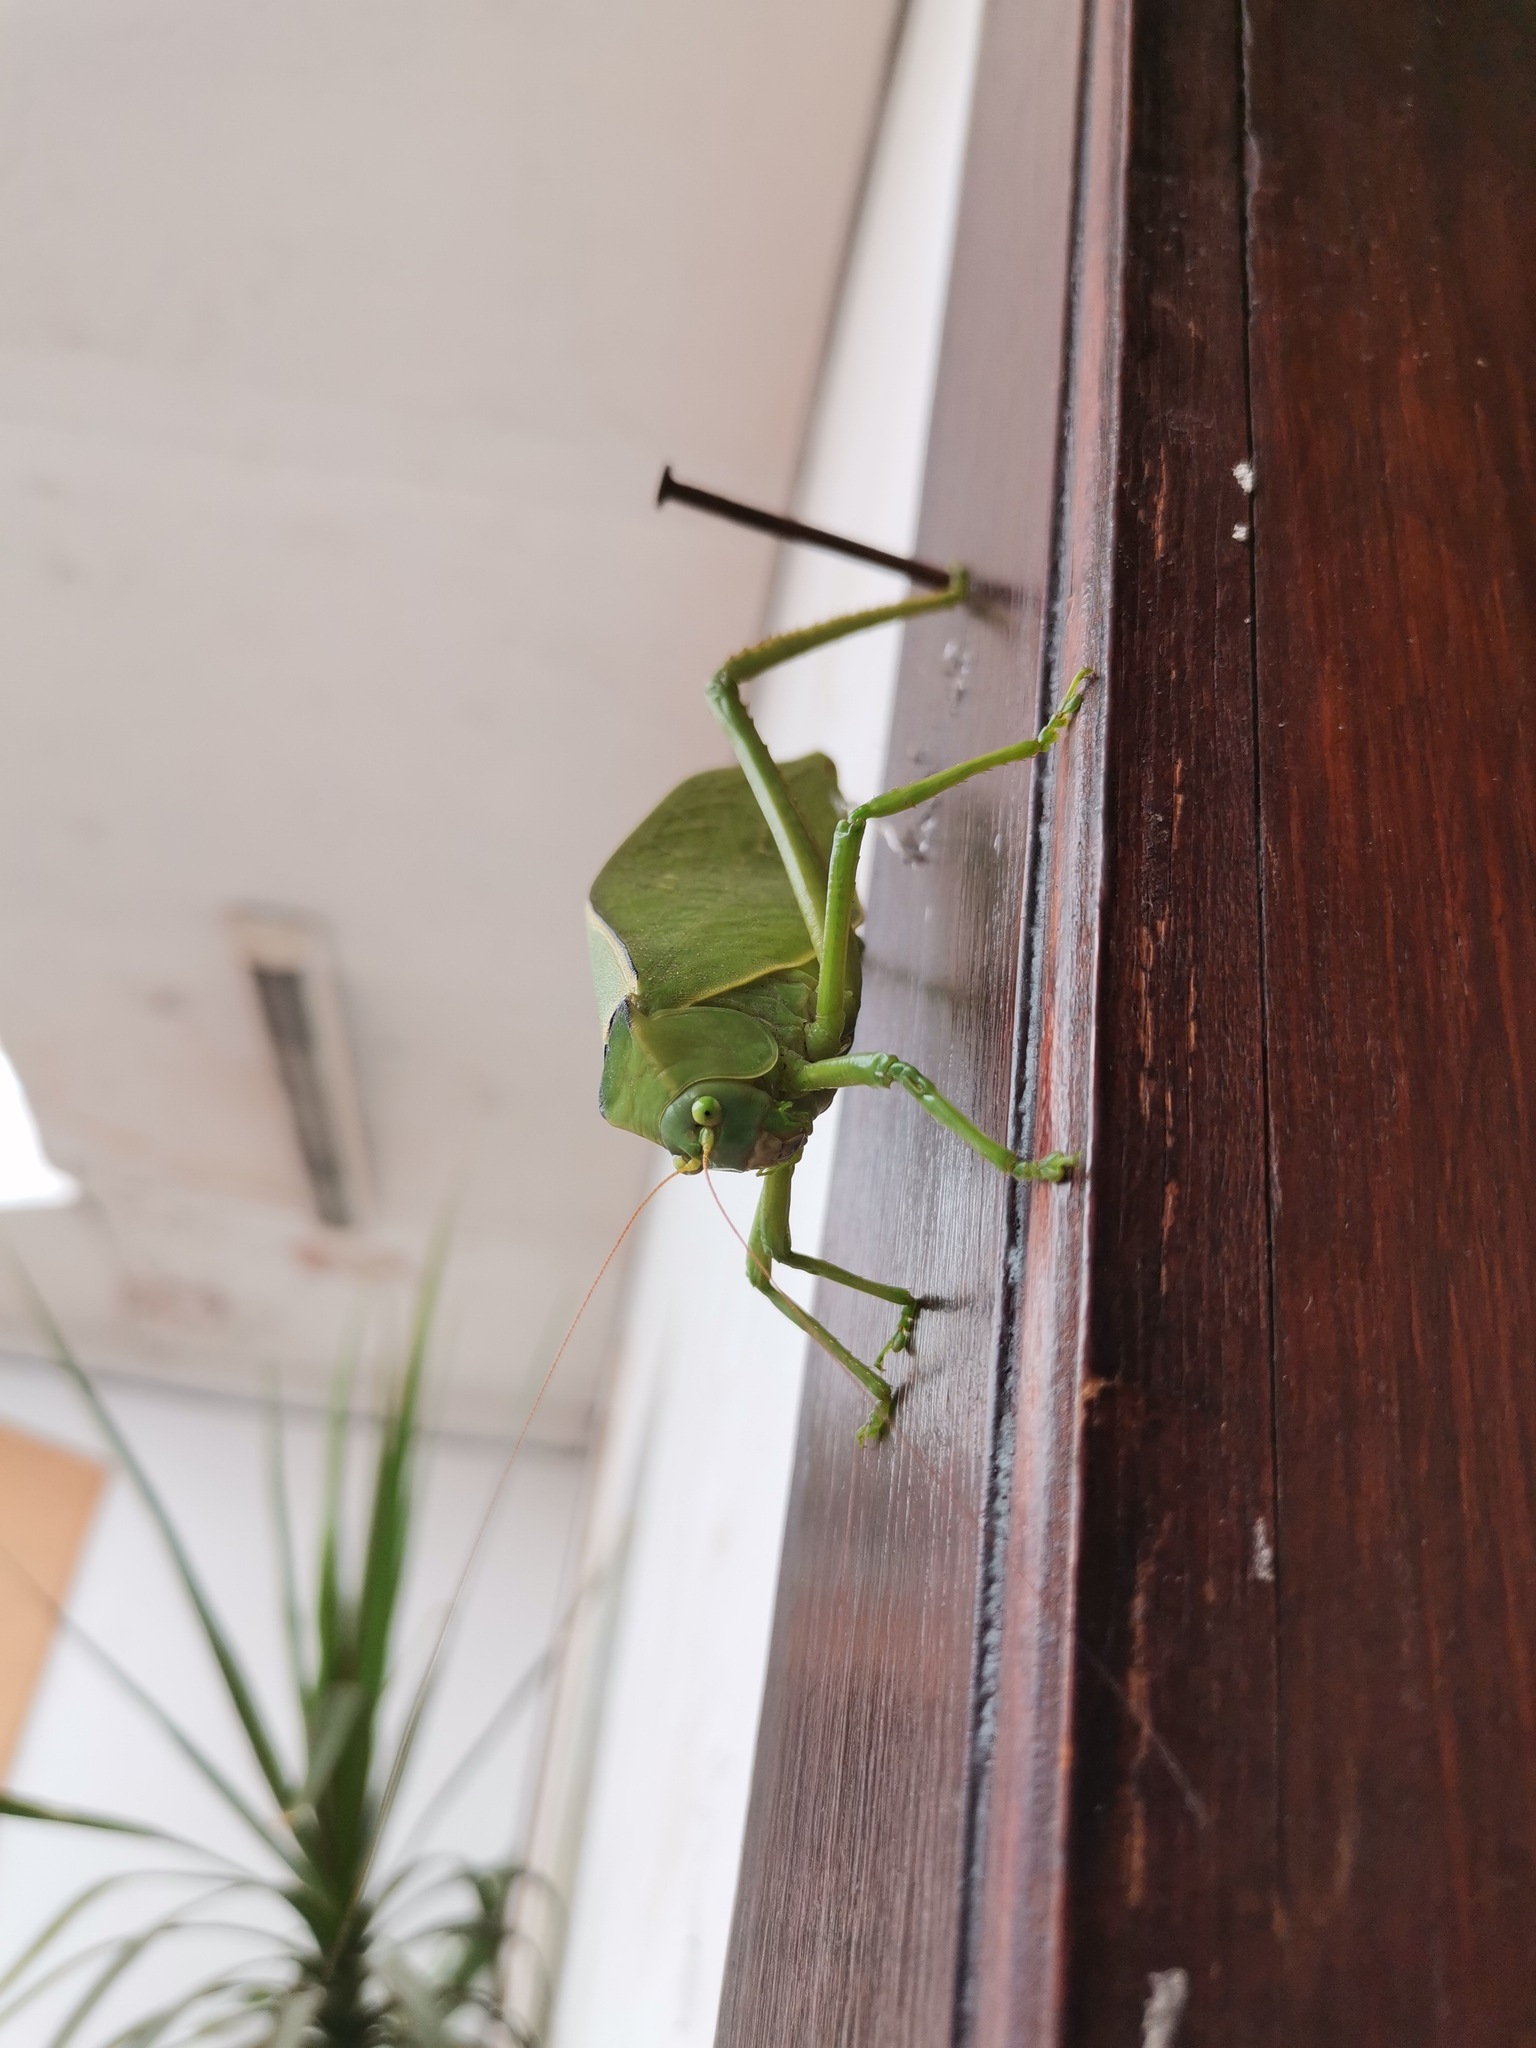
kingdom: Animalia
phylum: Arthropoda
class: Insecta
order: Orthoptera
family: Tettigoniidae
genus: Stilpnochlora
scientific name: Stilpnochlora azteca
